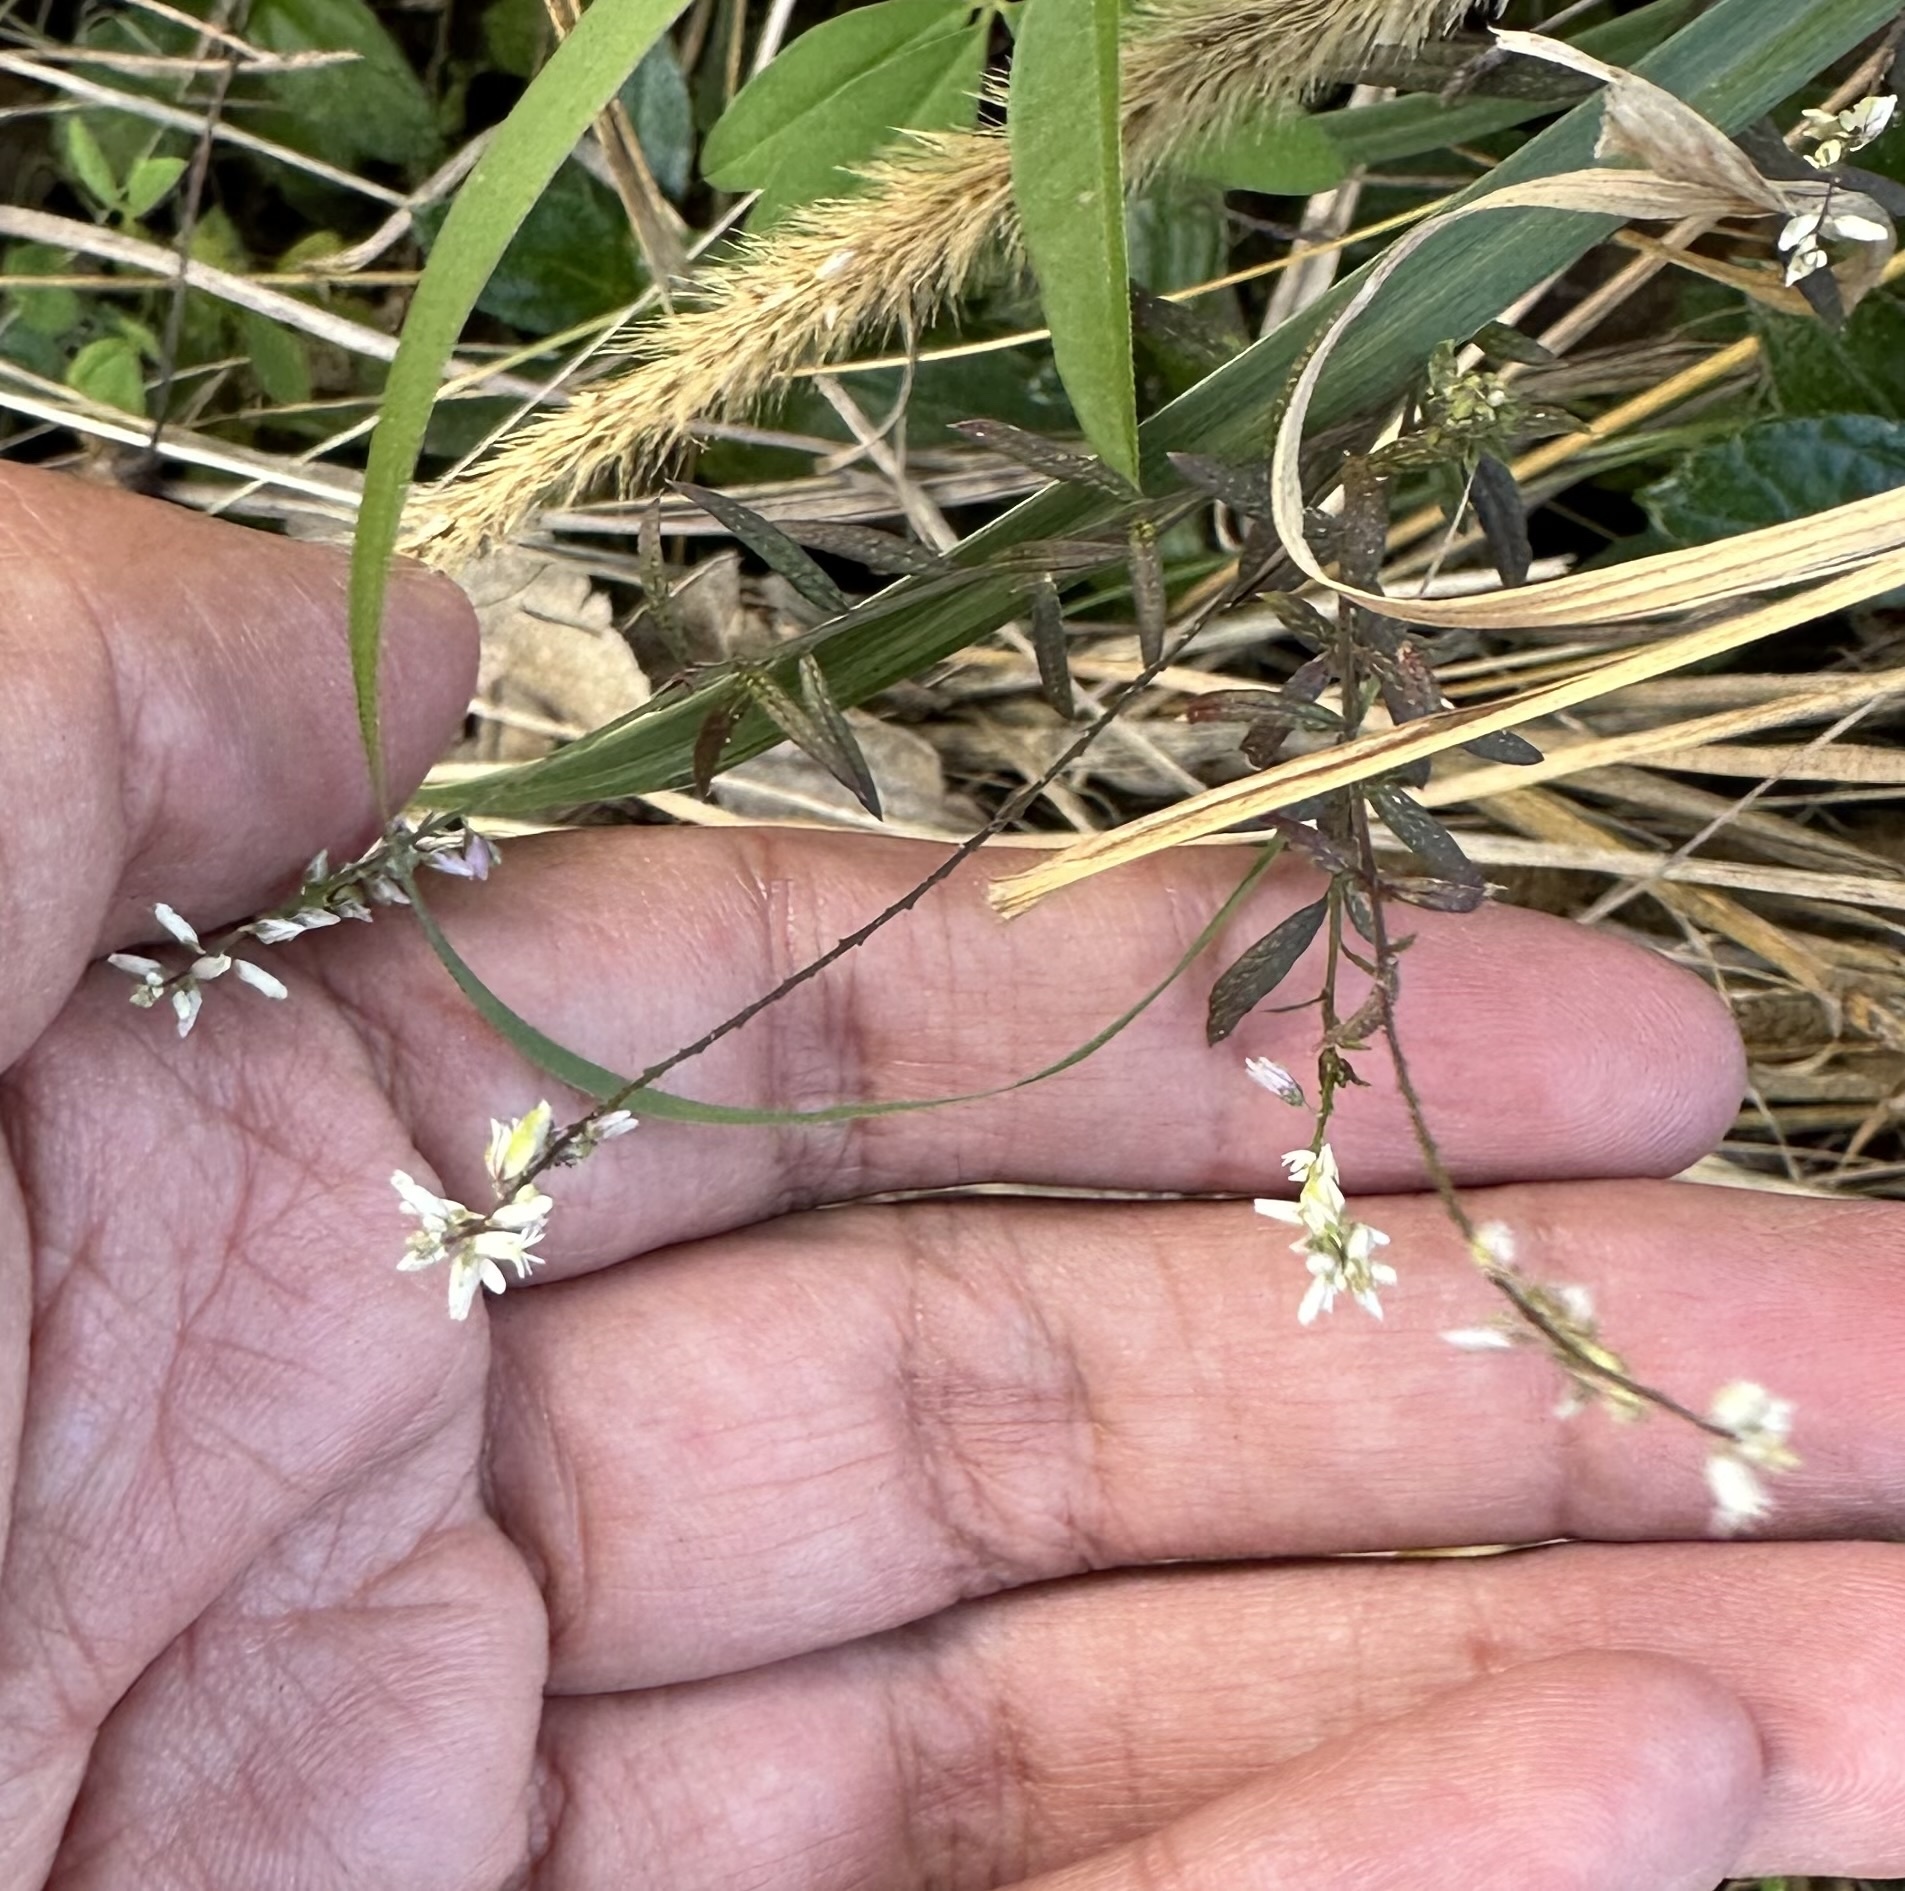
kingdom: Plantae
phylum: Tracheophyta
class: Magnoliopsida
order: Fabales
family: Polygalaceae
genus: Polygala
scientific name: Polygala paniculata
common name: Orosne
